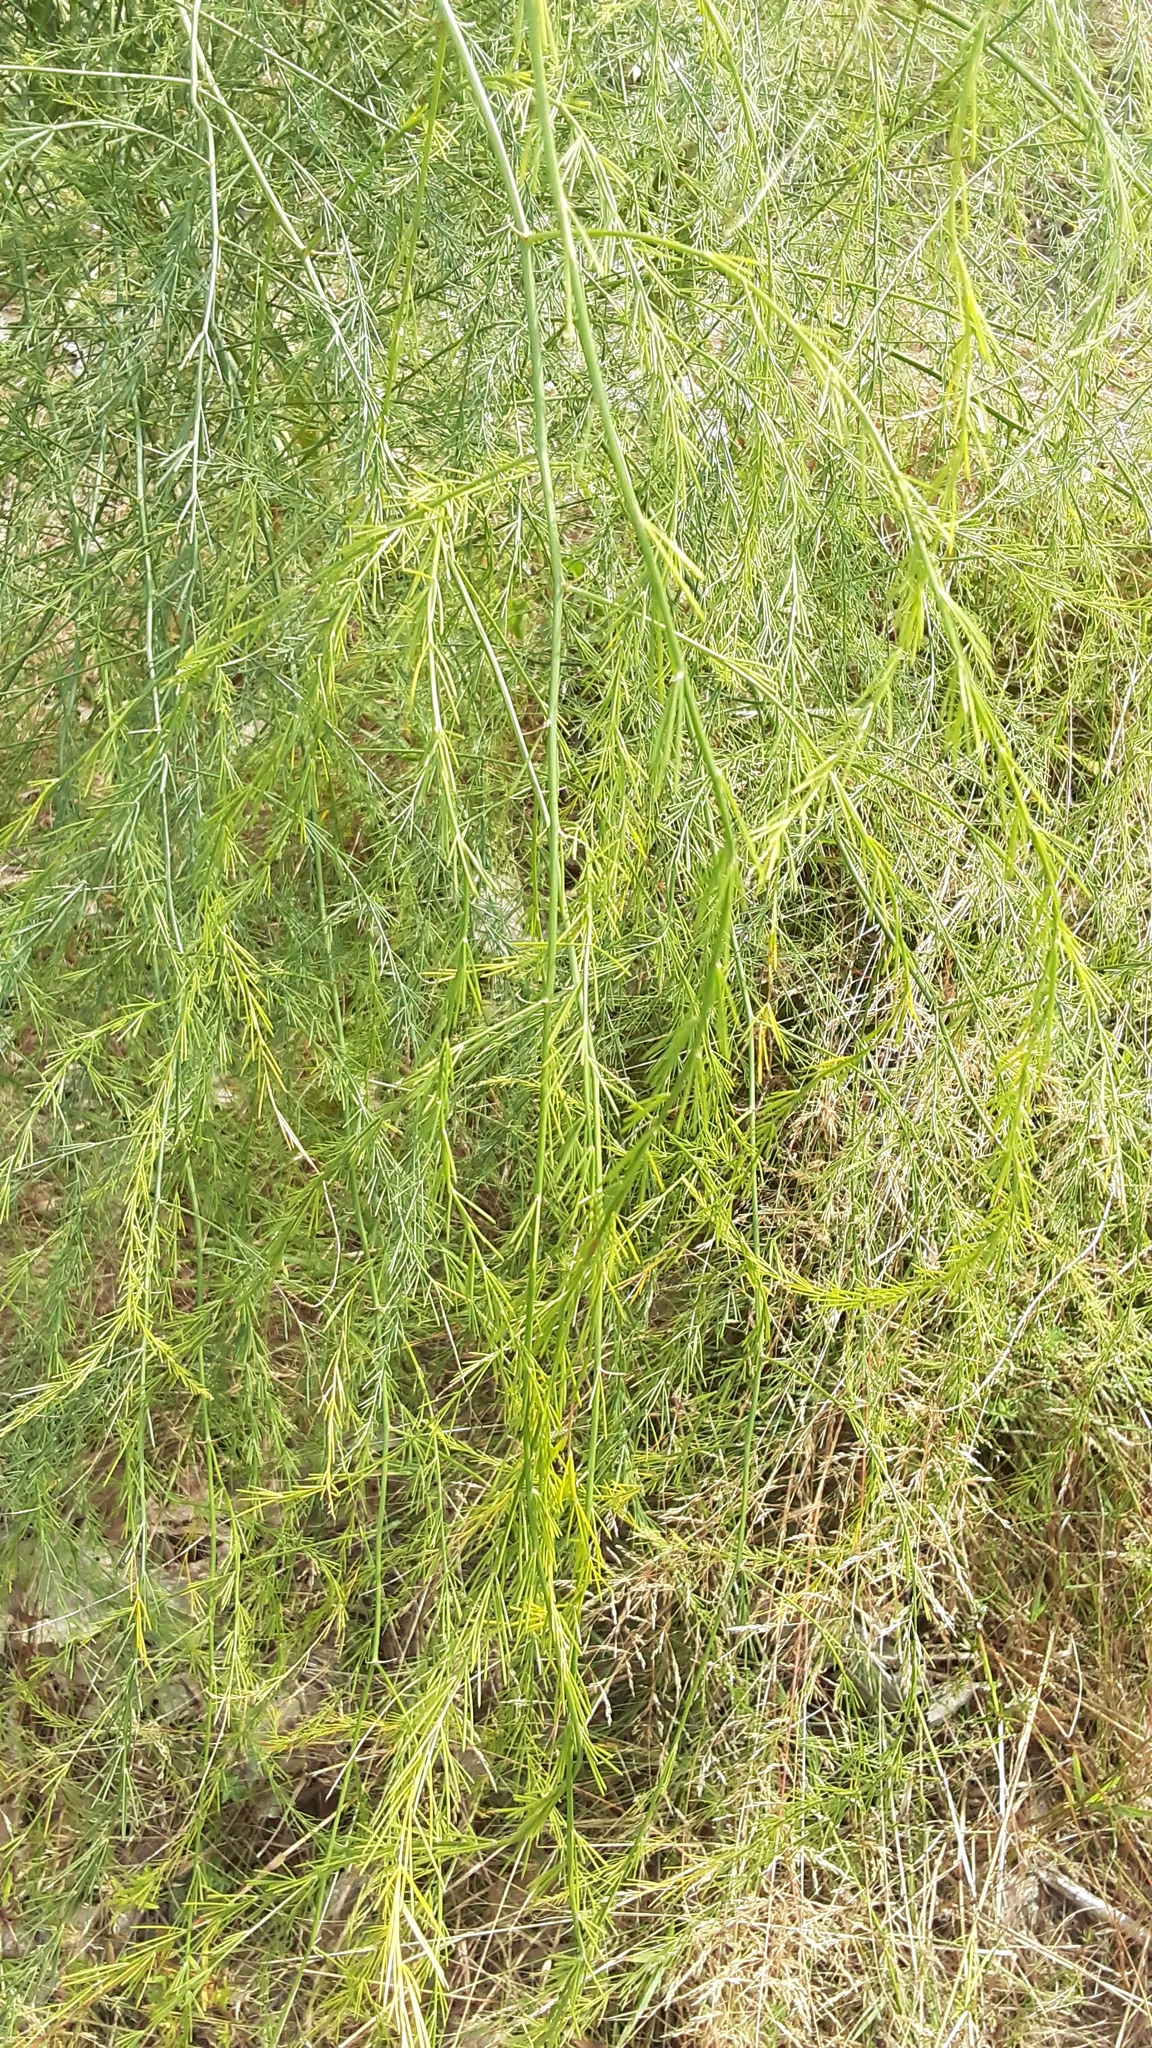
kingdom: Plantae
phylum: Tracheophyta
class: Liliopsida
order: Asparagales
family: Asparagaceae
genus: Asparagus
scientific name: Asparagus officinalis
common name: Garden asparagus
